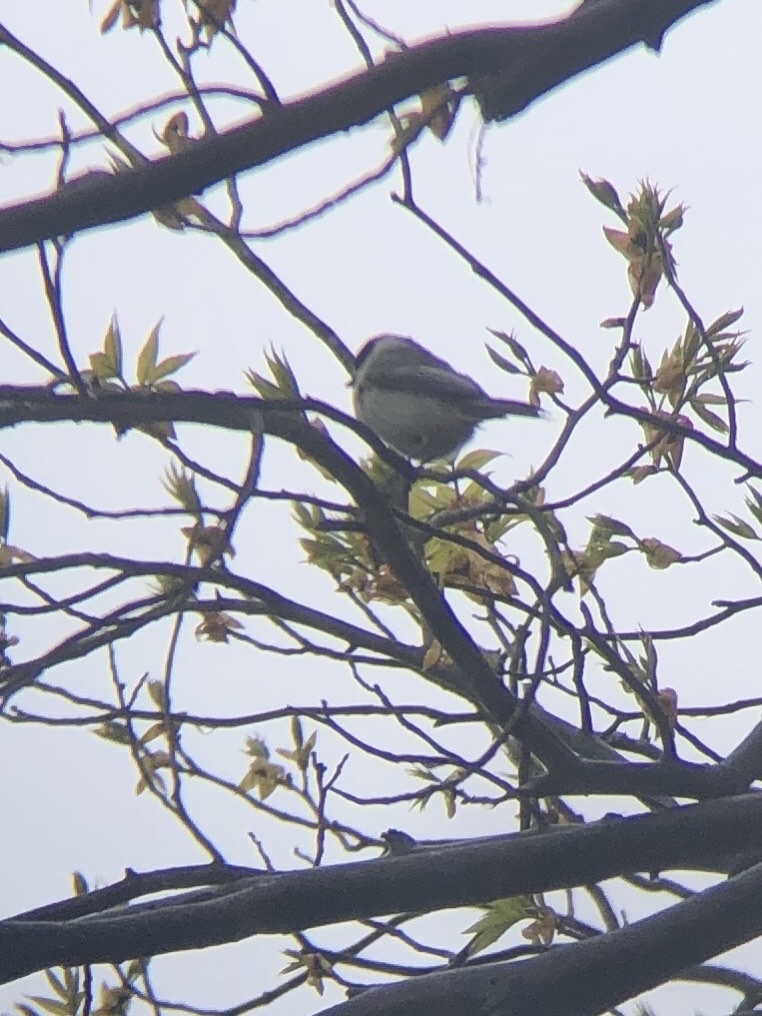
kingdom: Animalia
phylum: Chordata
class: Aves
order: Passeriformes
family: Paridae
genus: Poecile
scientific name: Poecile carolinensis
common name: Carolina chickadee
